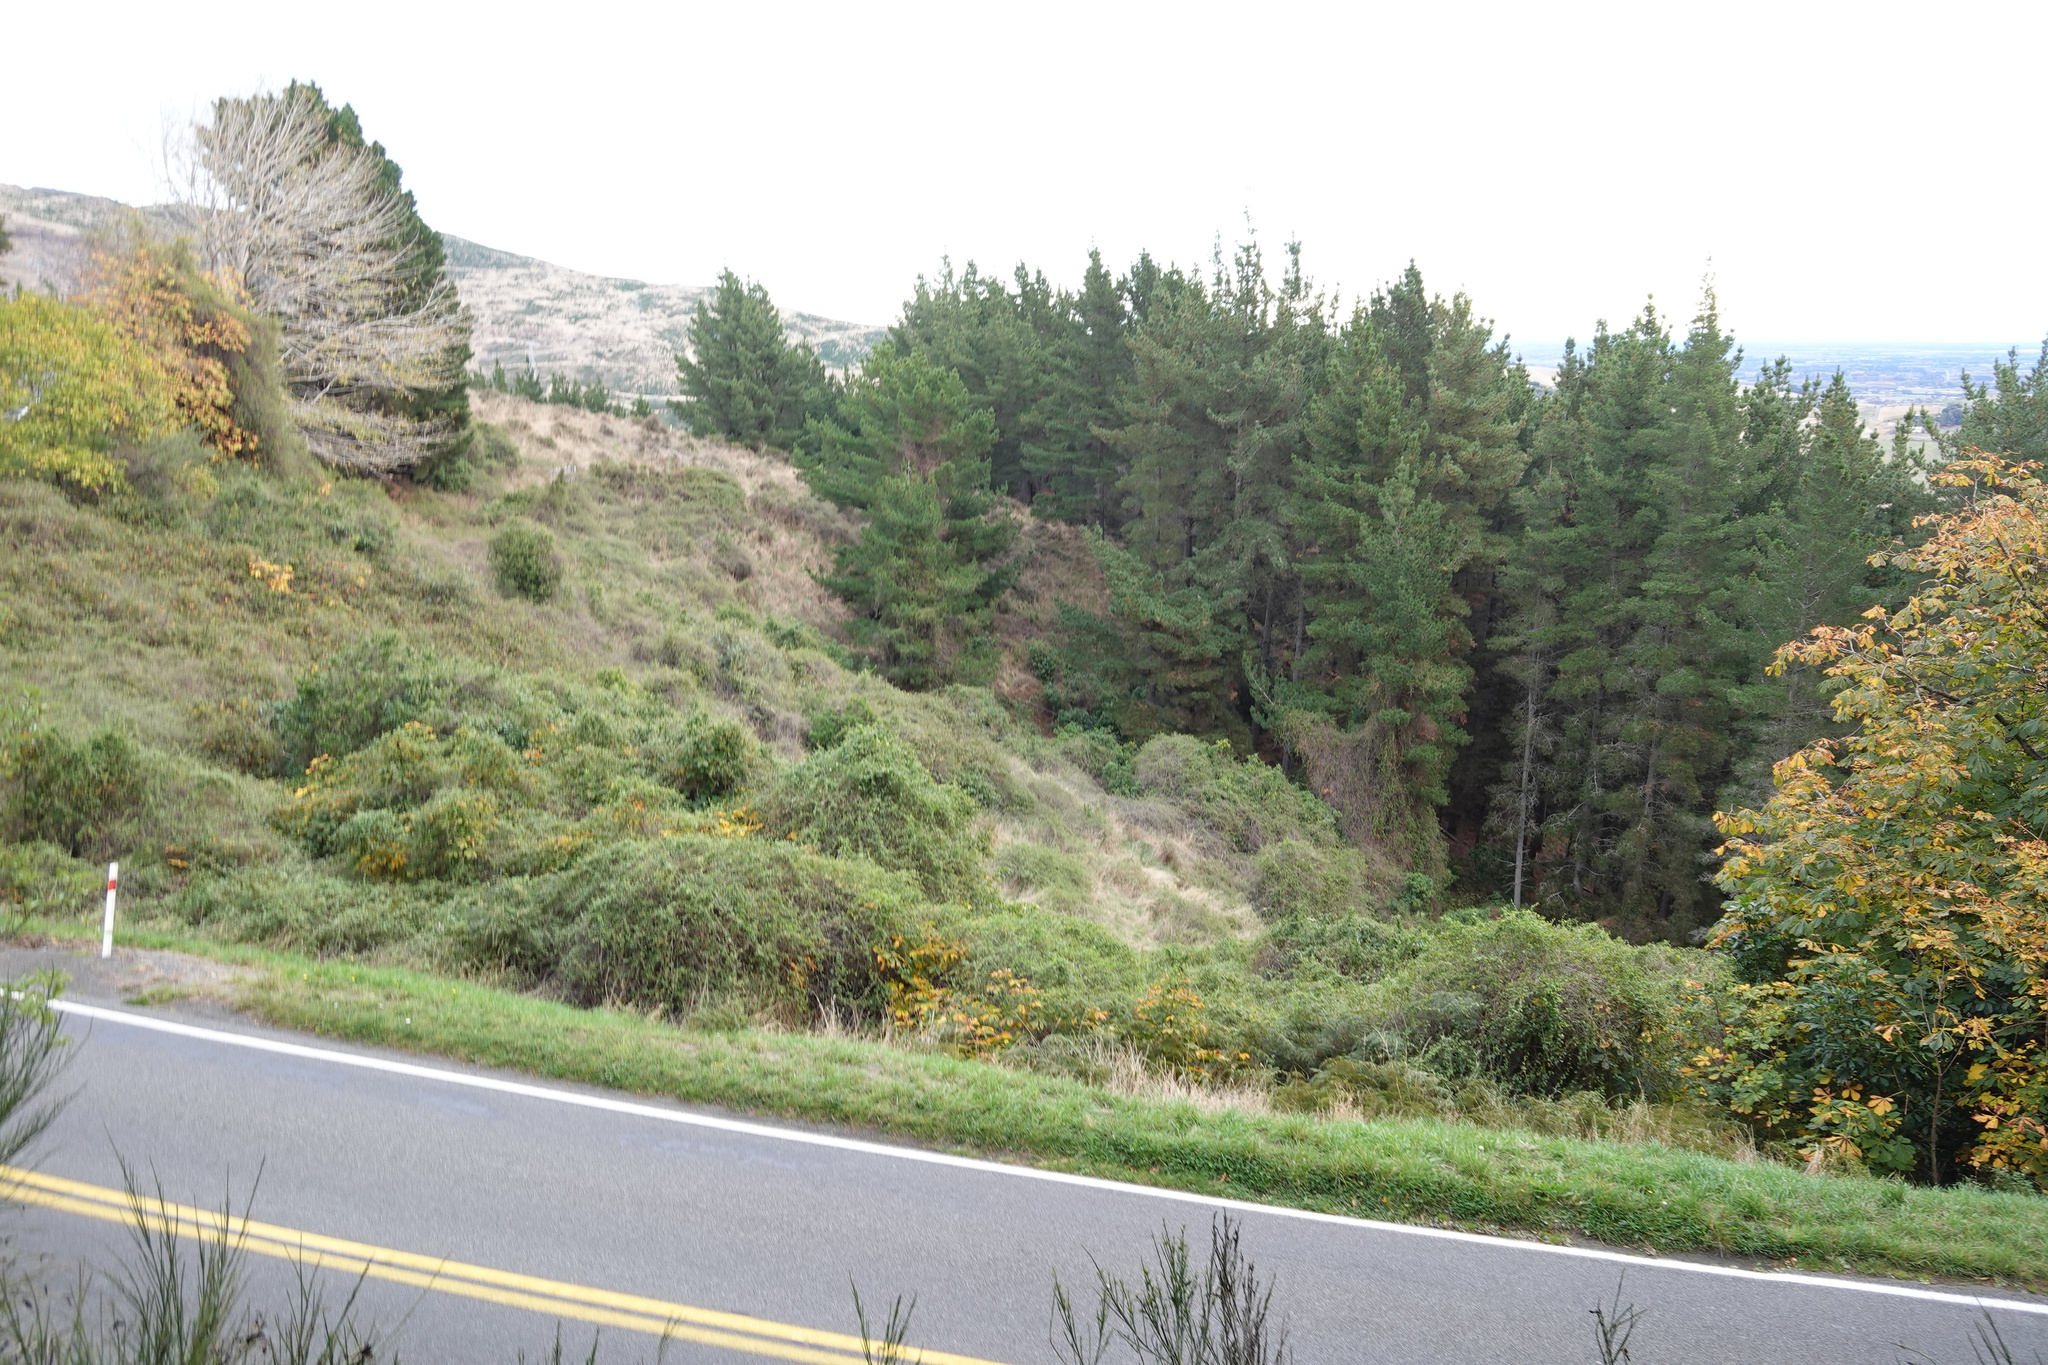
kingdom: Plantae
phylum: Tracheophyta
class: Magnoliopsida
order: Caryophyllales
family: Polygonaceae
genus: Muehlenbeckia
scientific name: Muehlenbeckia australis
